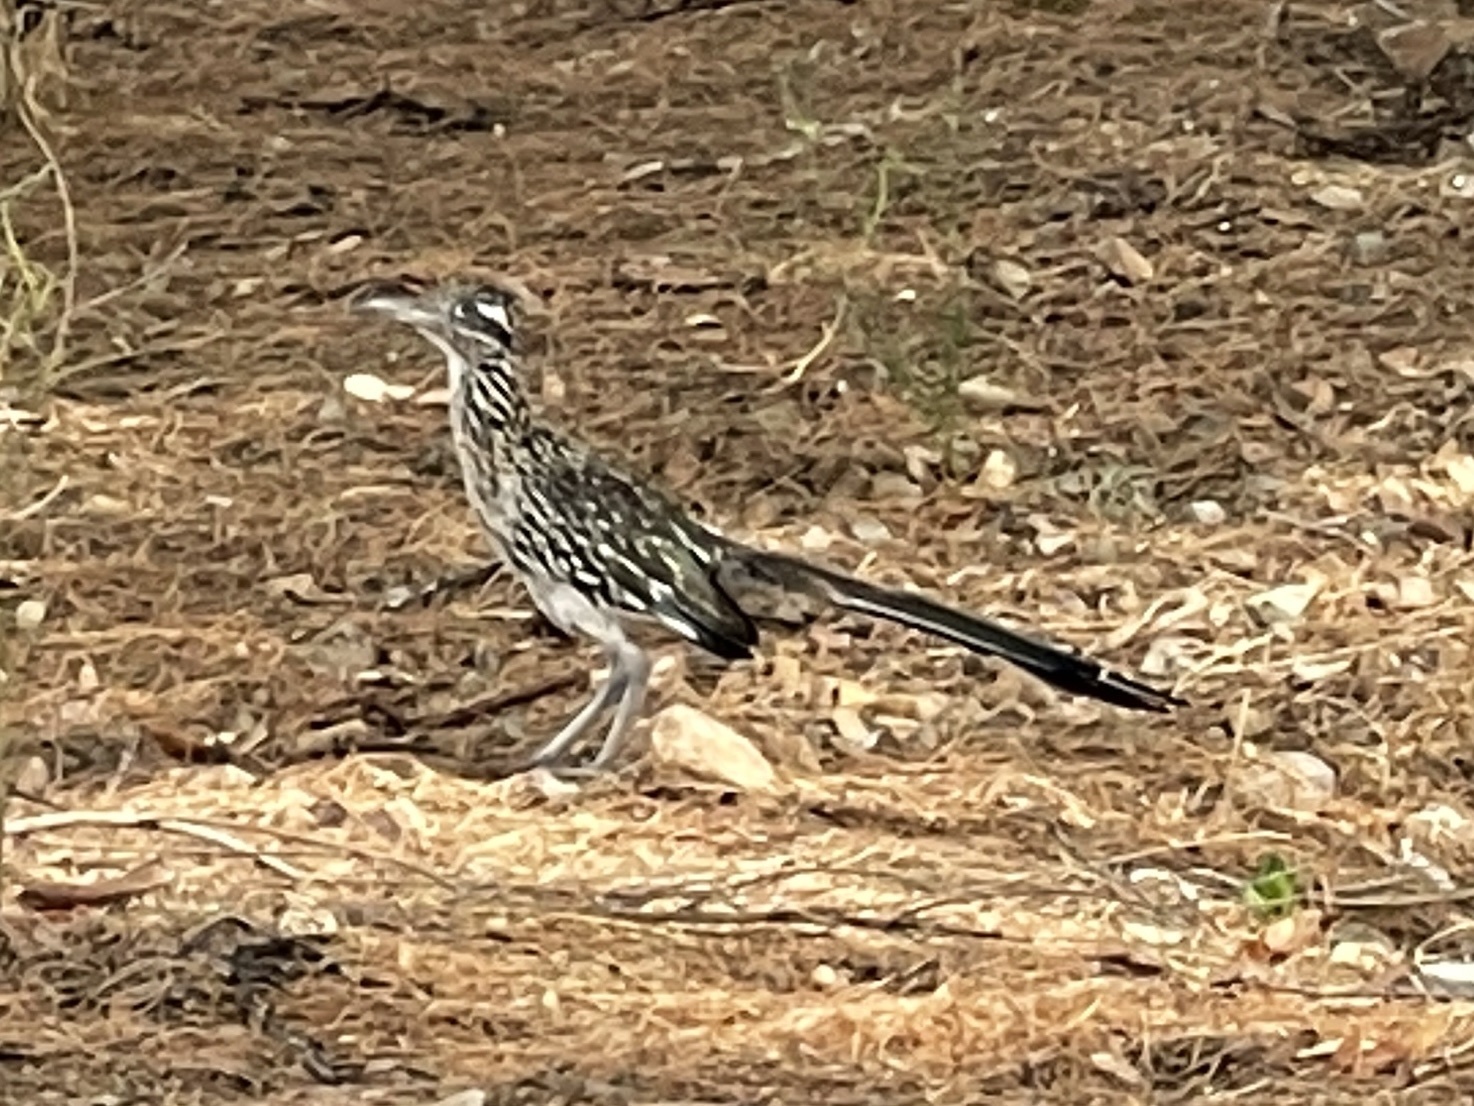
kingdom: Animalia
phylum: Chordata
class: Aves
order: Cuculiformes
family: Cuculidae
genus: Geococcyx
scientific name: Geococcyx californianus
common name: Greater roadrunner
